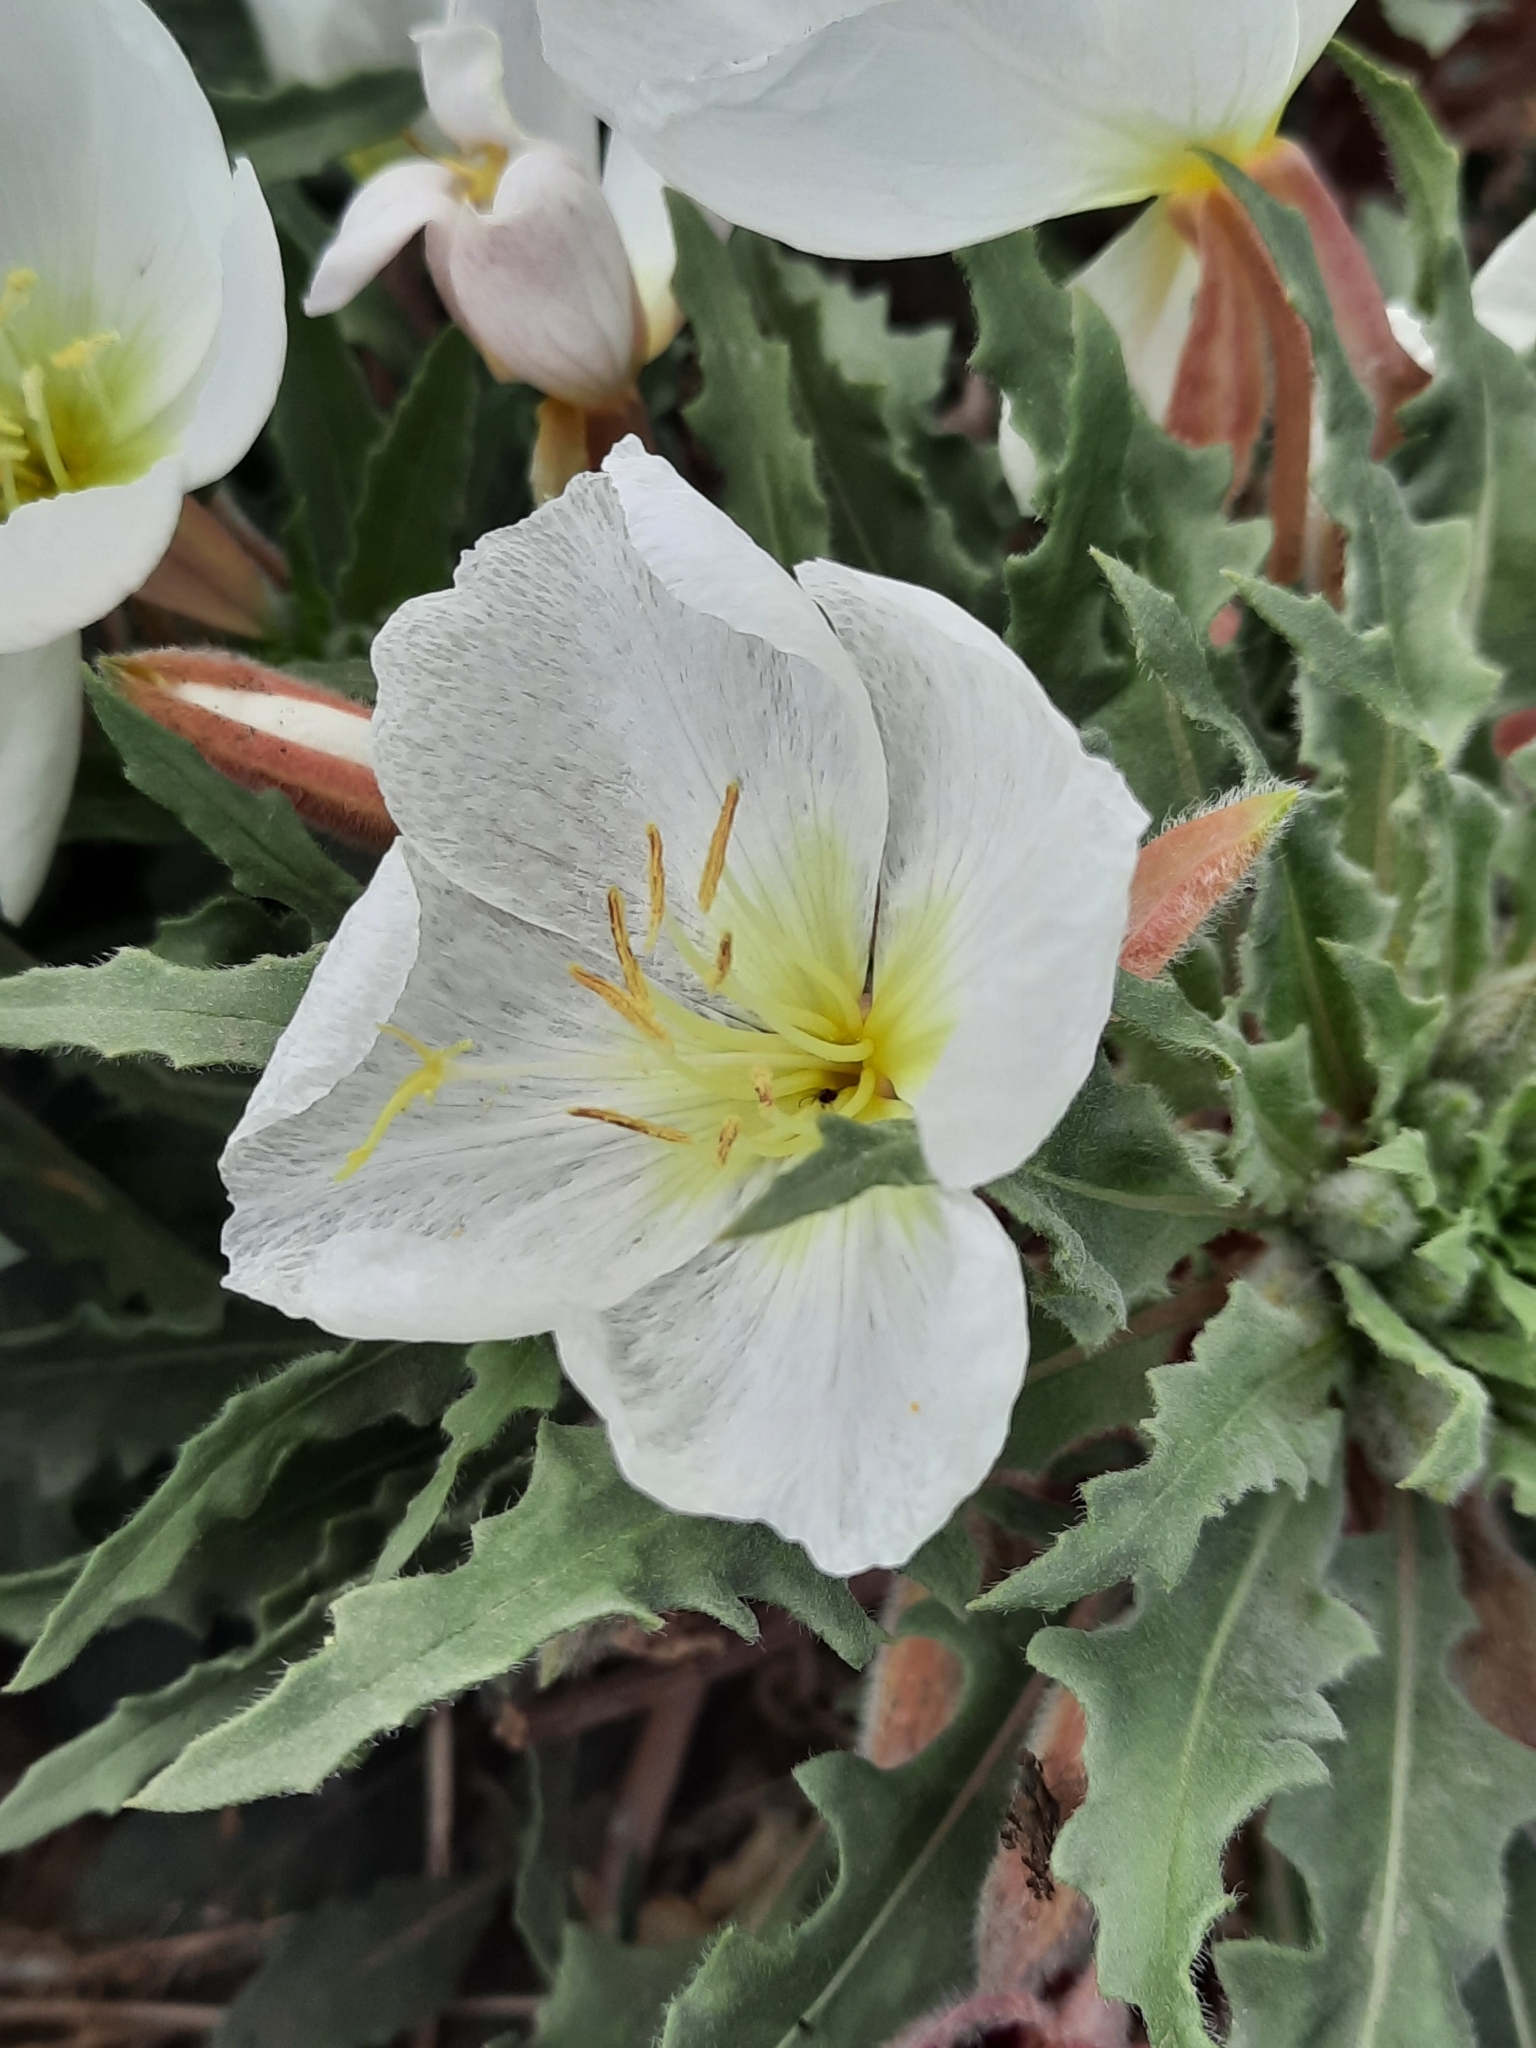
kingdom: Plantae
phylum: Tracheophyta
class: Magnoliopsida
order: Myrtales
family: Onagraceae
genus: Oenothera
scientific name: Oenothera deltoides
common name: Basket evening-primrose
